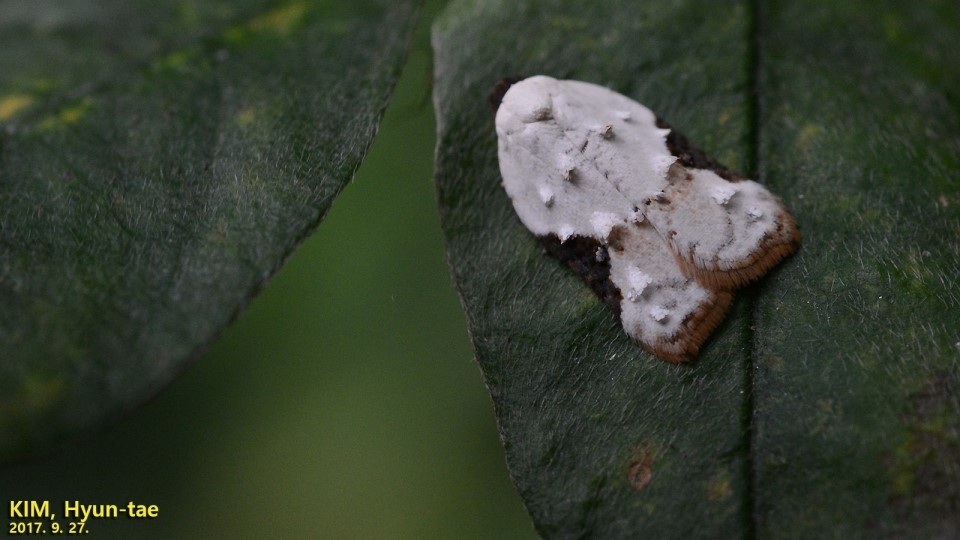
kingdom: Animalia
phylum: Arthropoda
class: Insecta
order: Lepidoptera
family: Tortricidae
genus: Acleris
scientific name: Acleris takeuchii
